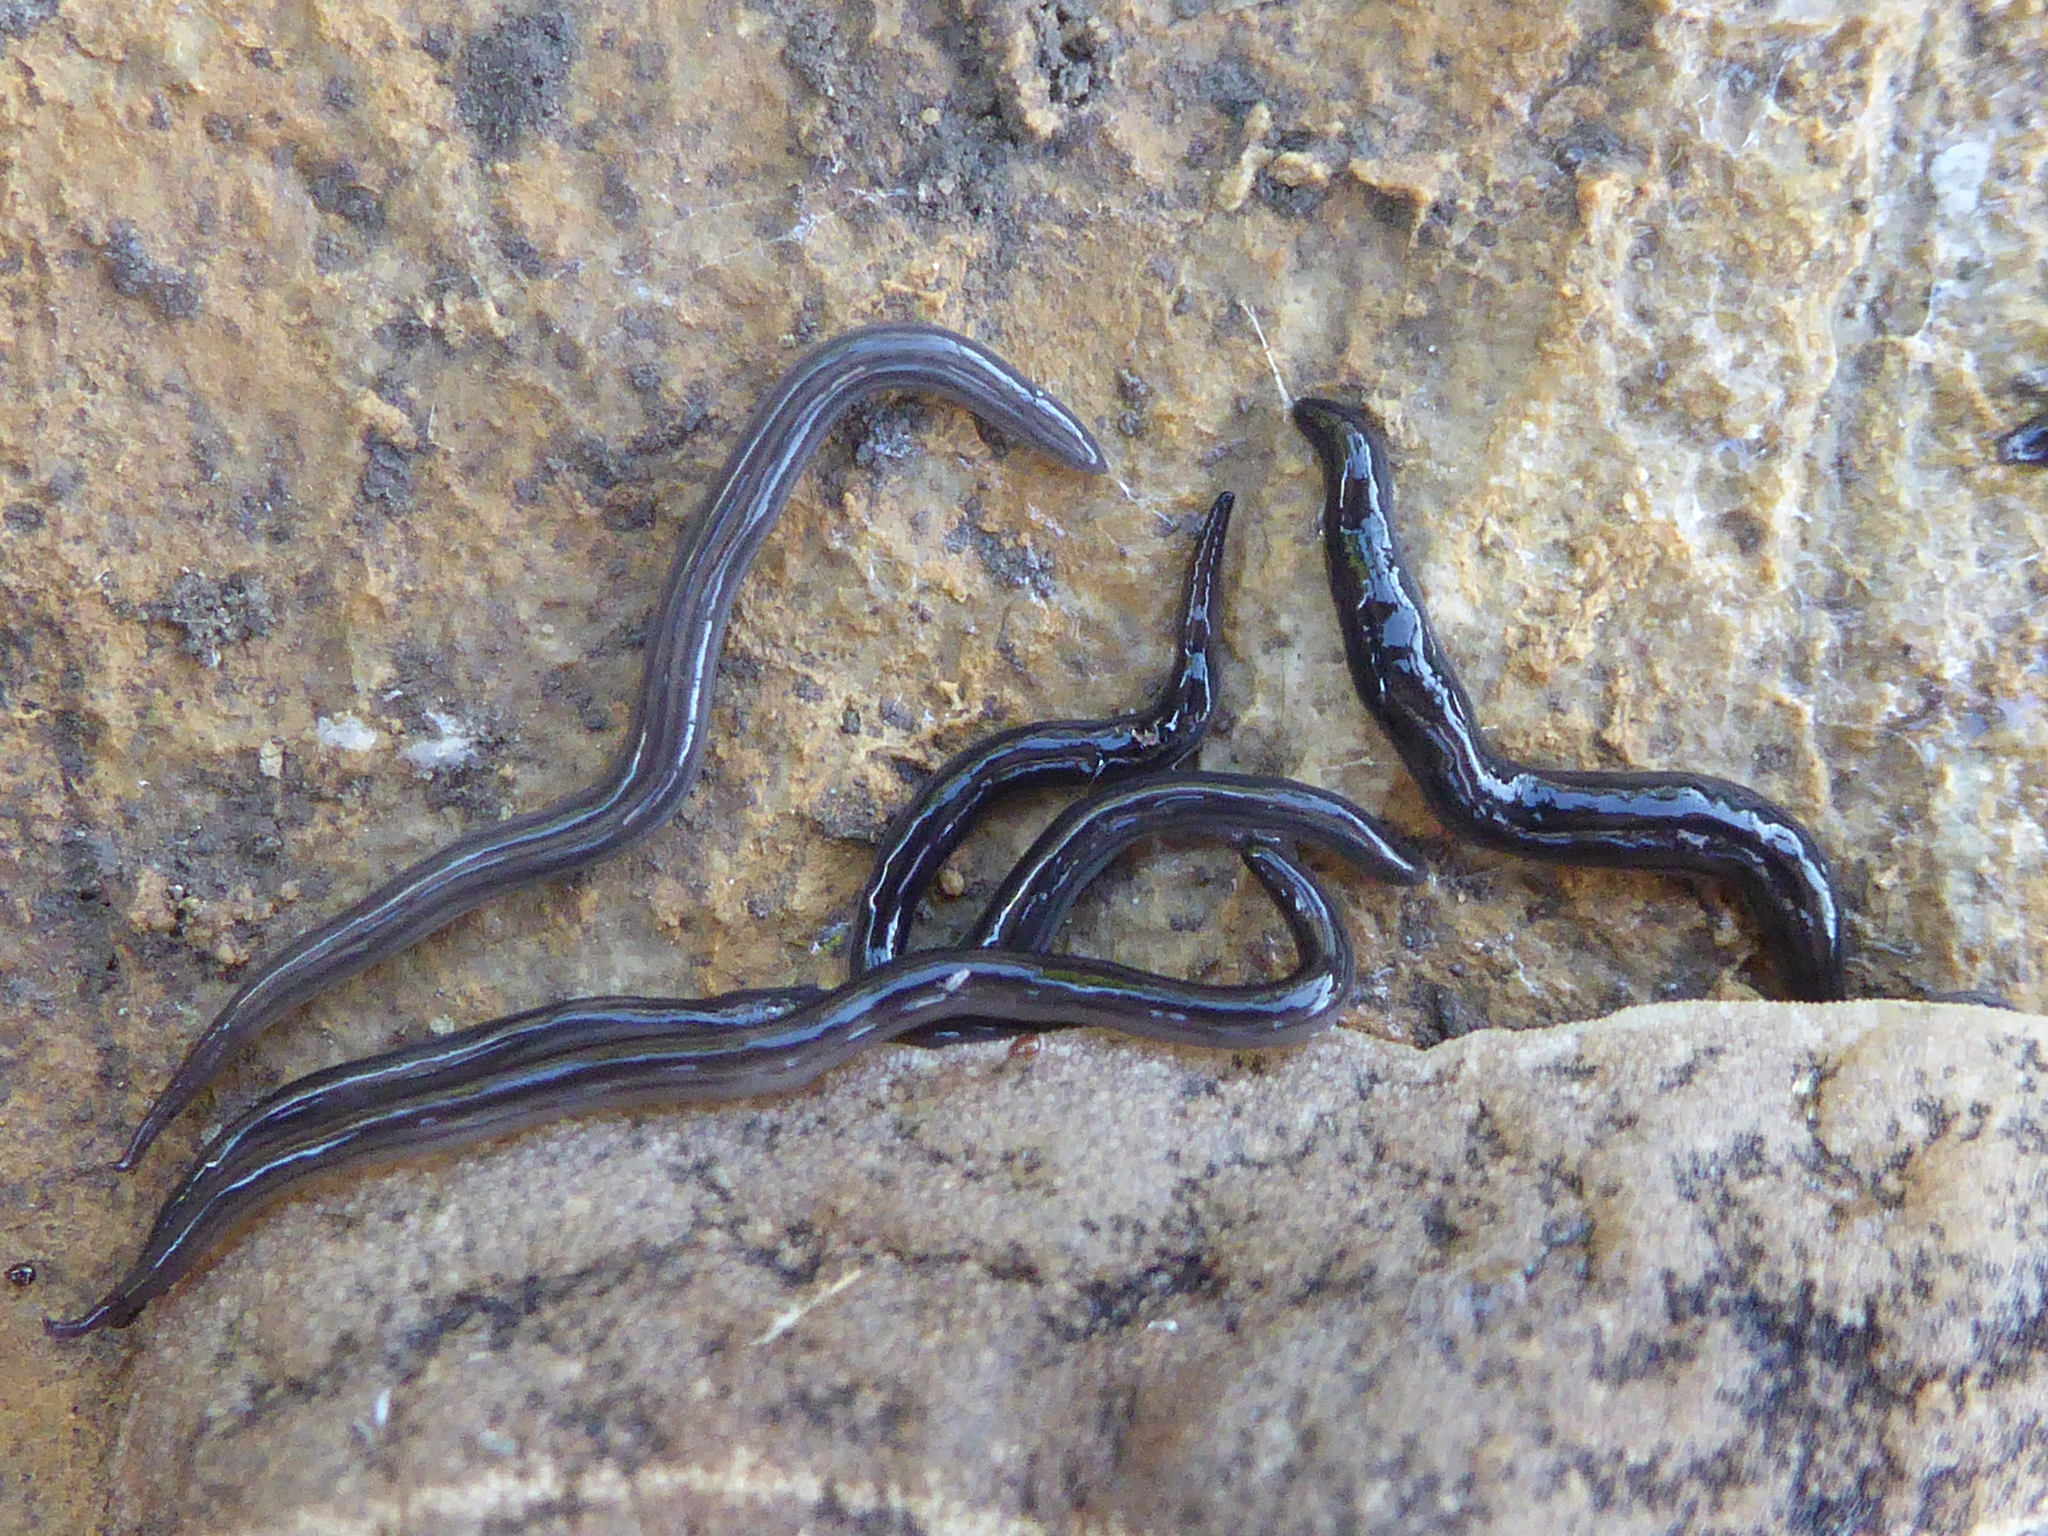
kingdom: Animalia
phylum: Platyhelminthes
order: Tricladida
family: Geoplanidae
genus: Endeavouria
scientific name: Endeavouria septemlineata
